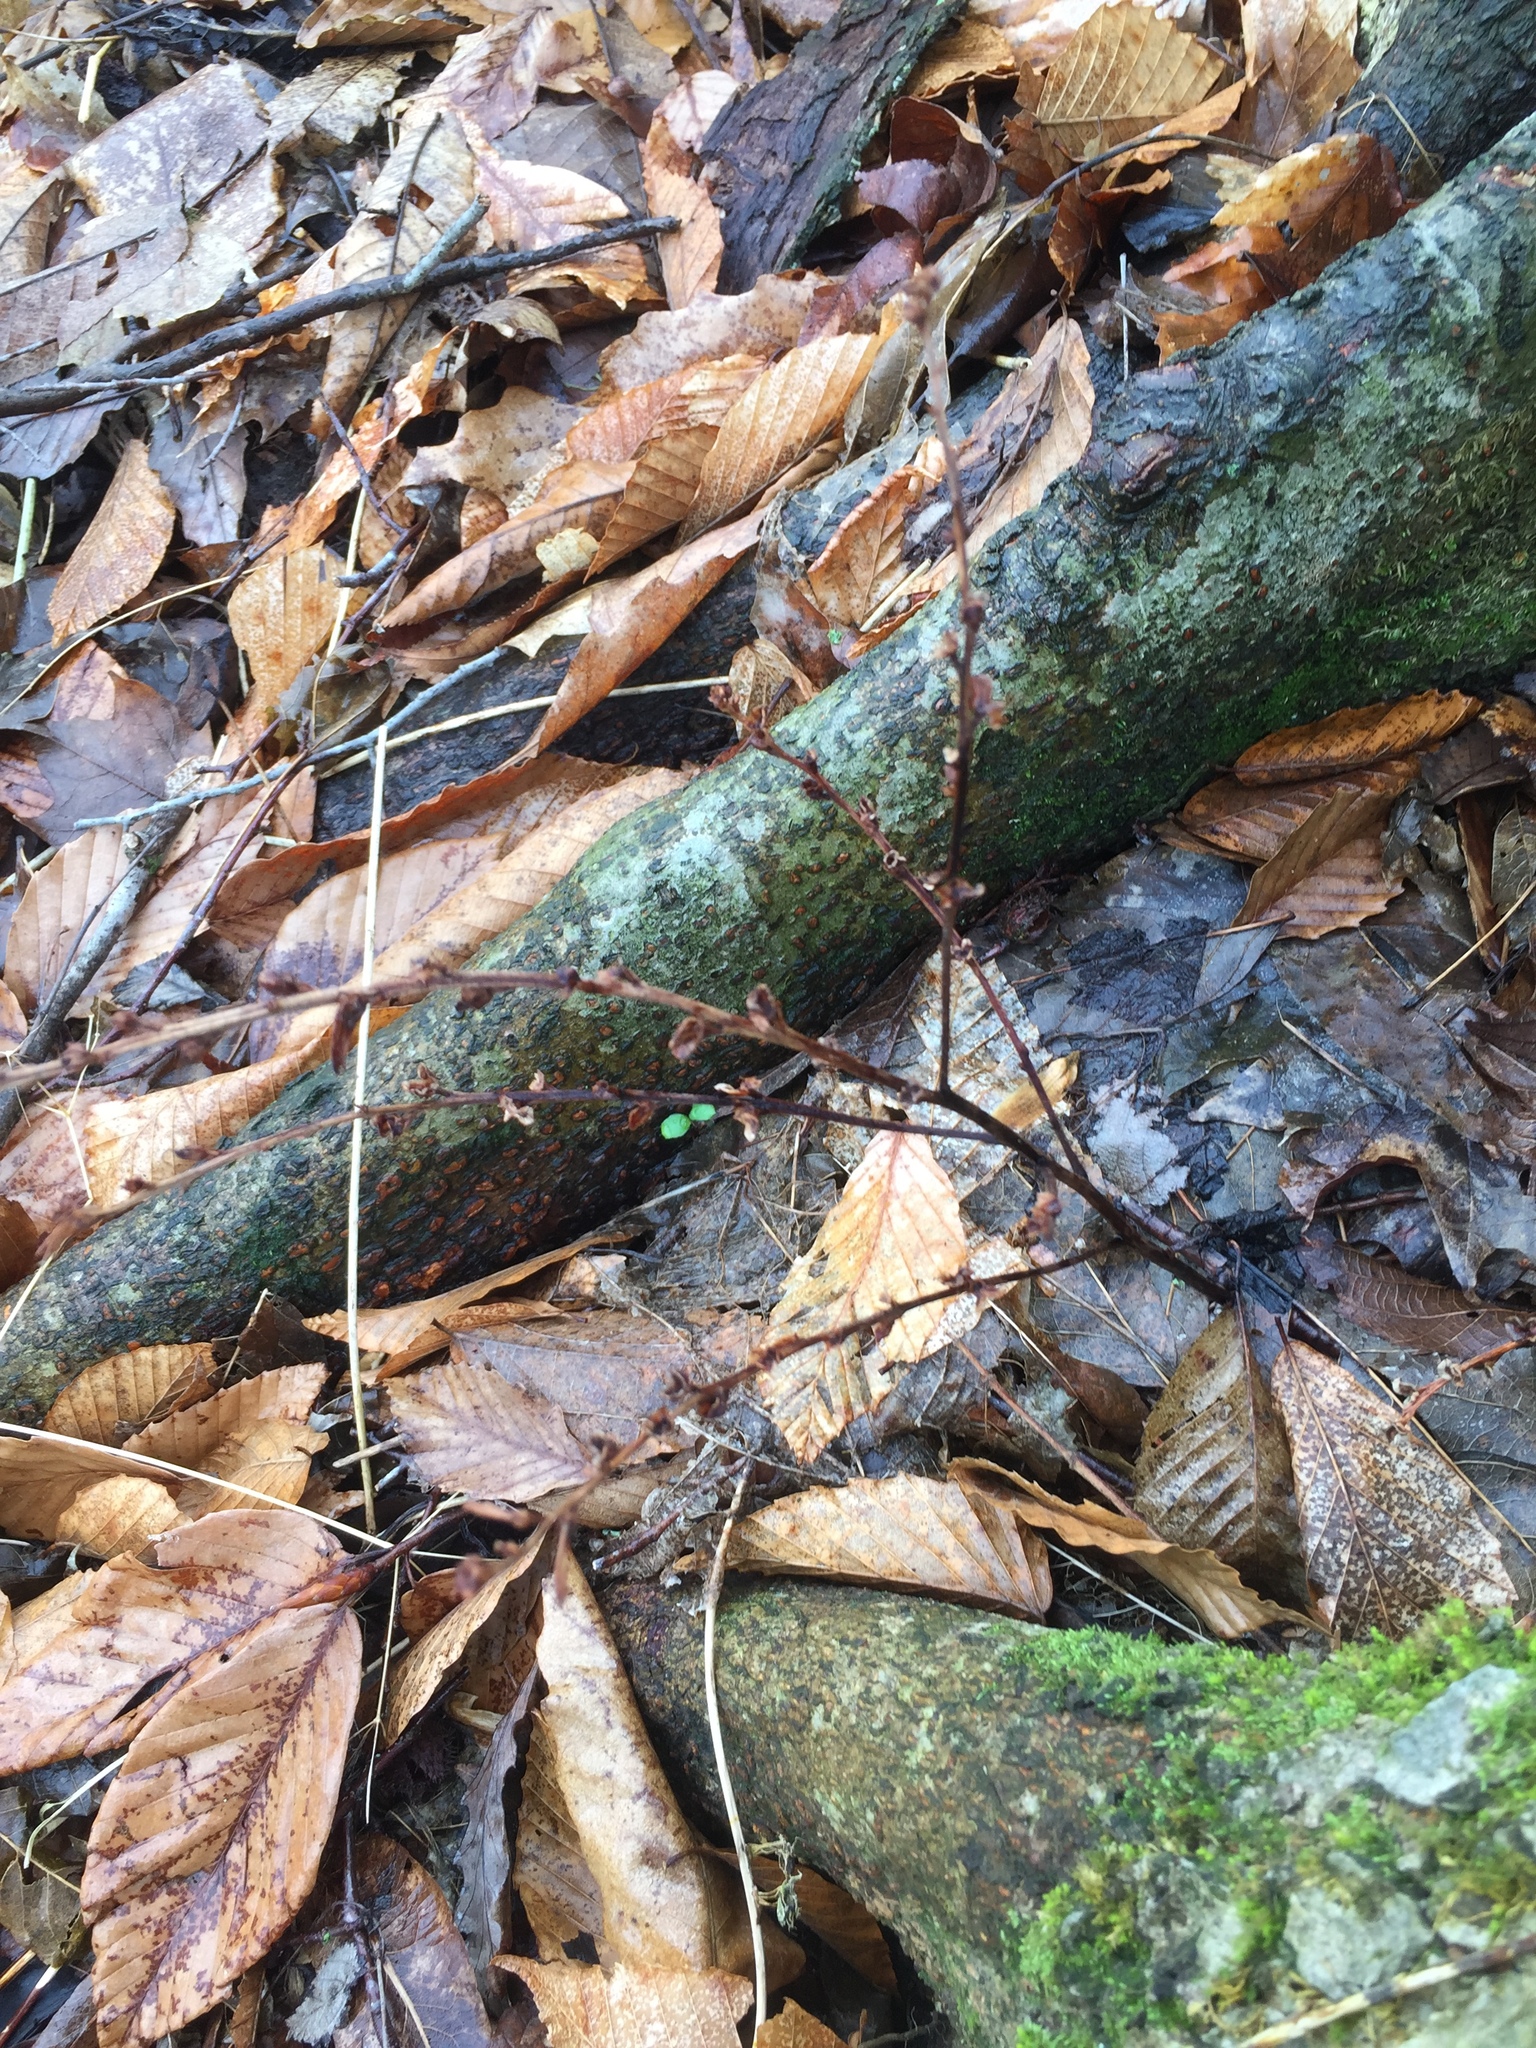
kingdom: Plantae
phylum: Tracheophyta
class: Magnoliopsida
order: Lamiales
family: Orobanchaceae
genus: Epifagus
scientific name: Epifagus virginiana
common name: Beechdrops
